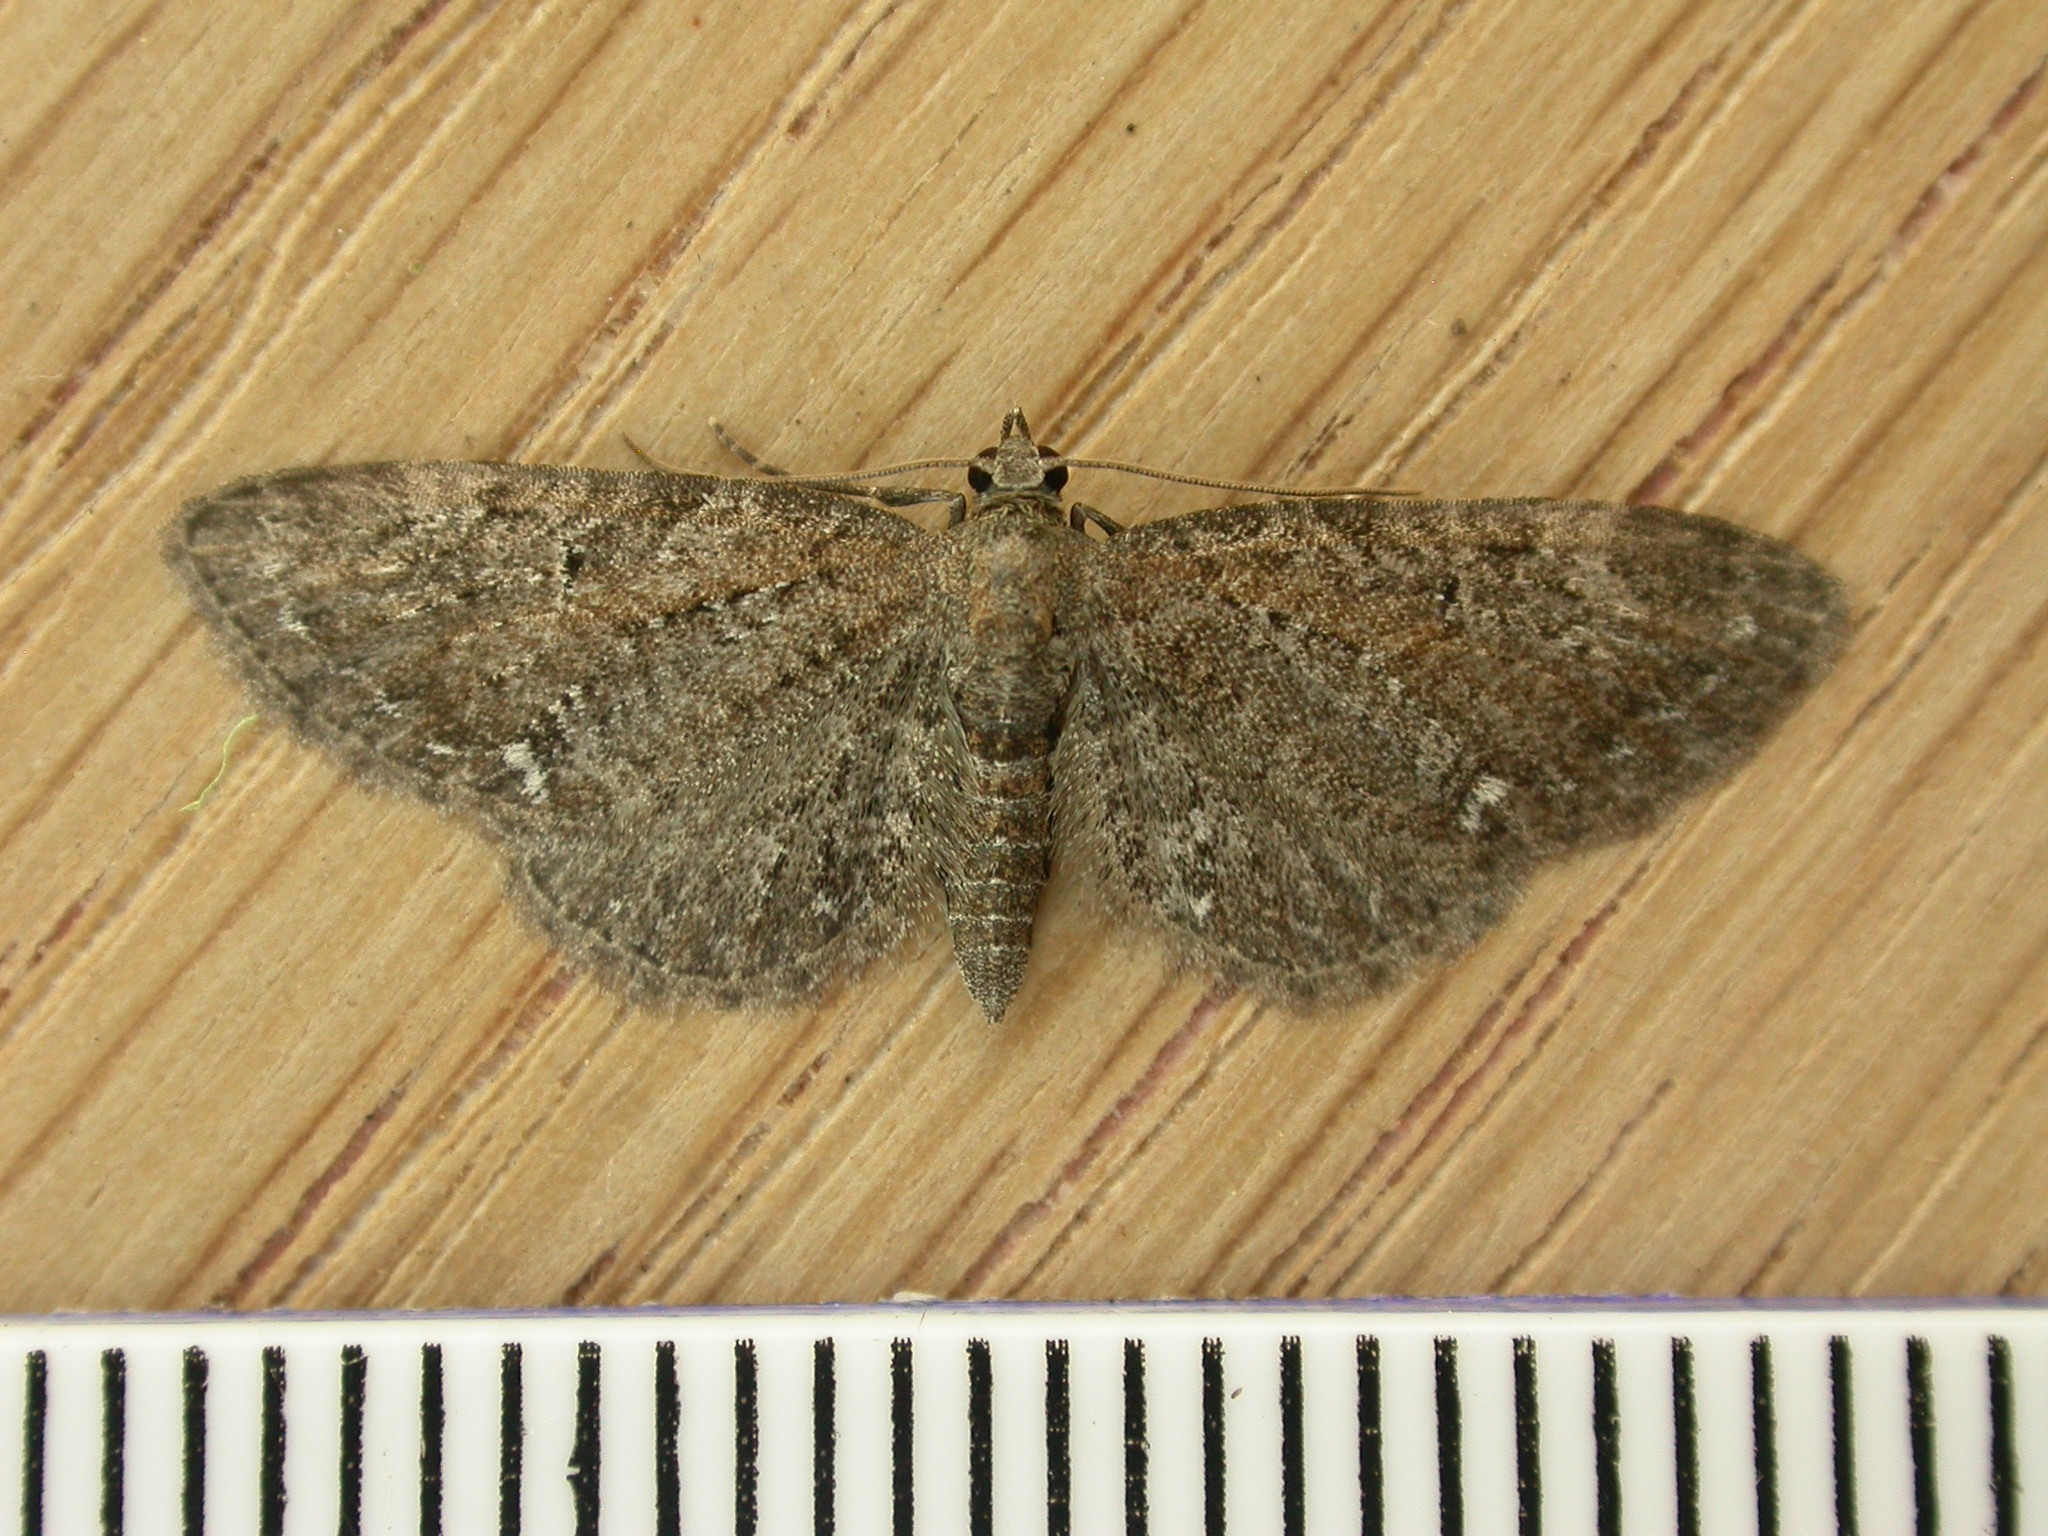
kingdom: Animalia
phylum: Arthropoda
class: Insecta
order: Lepidoptera
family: Geometridae
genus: Eupithecia
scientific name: Eupithecia vulgata
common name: Common pug
